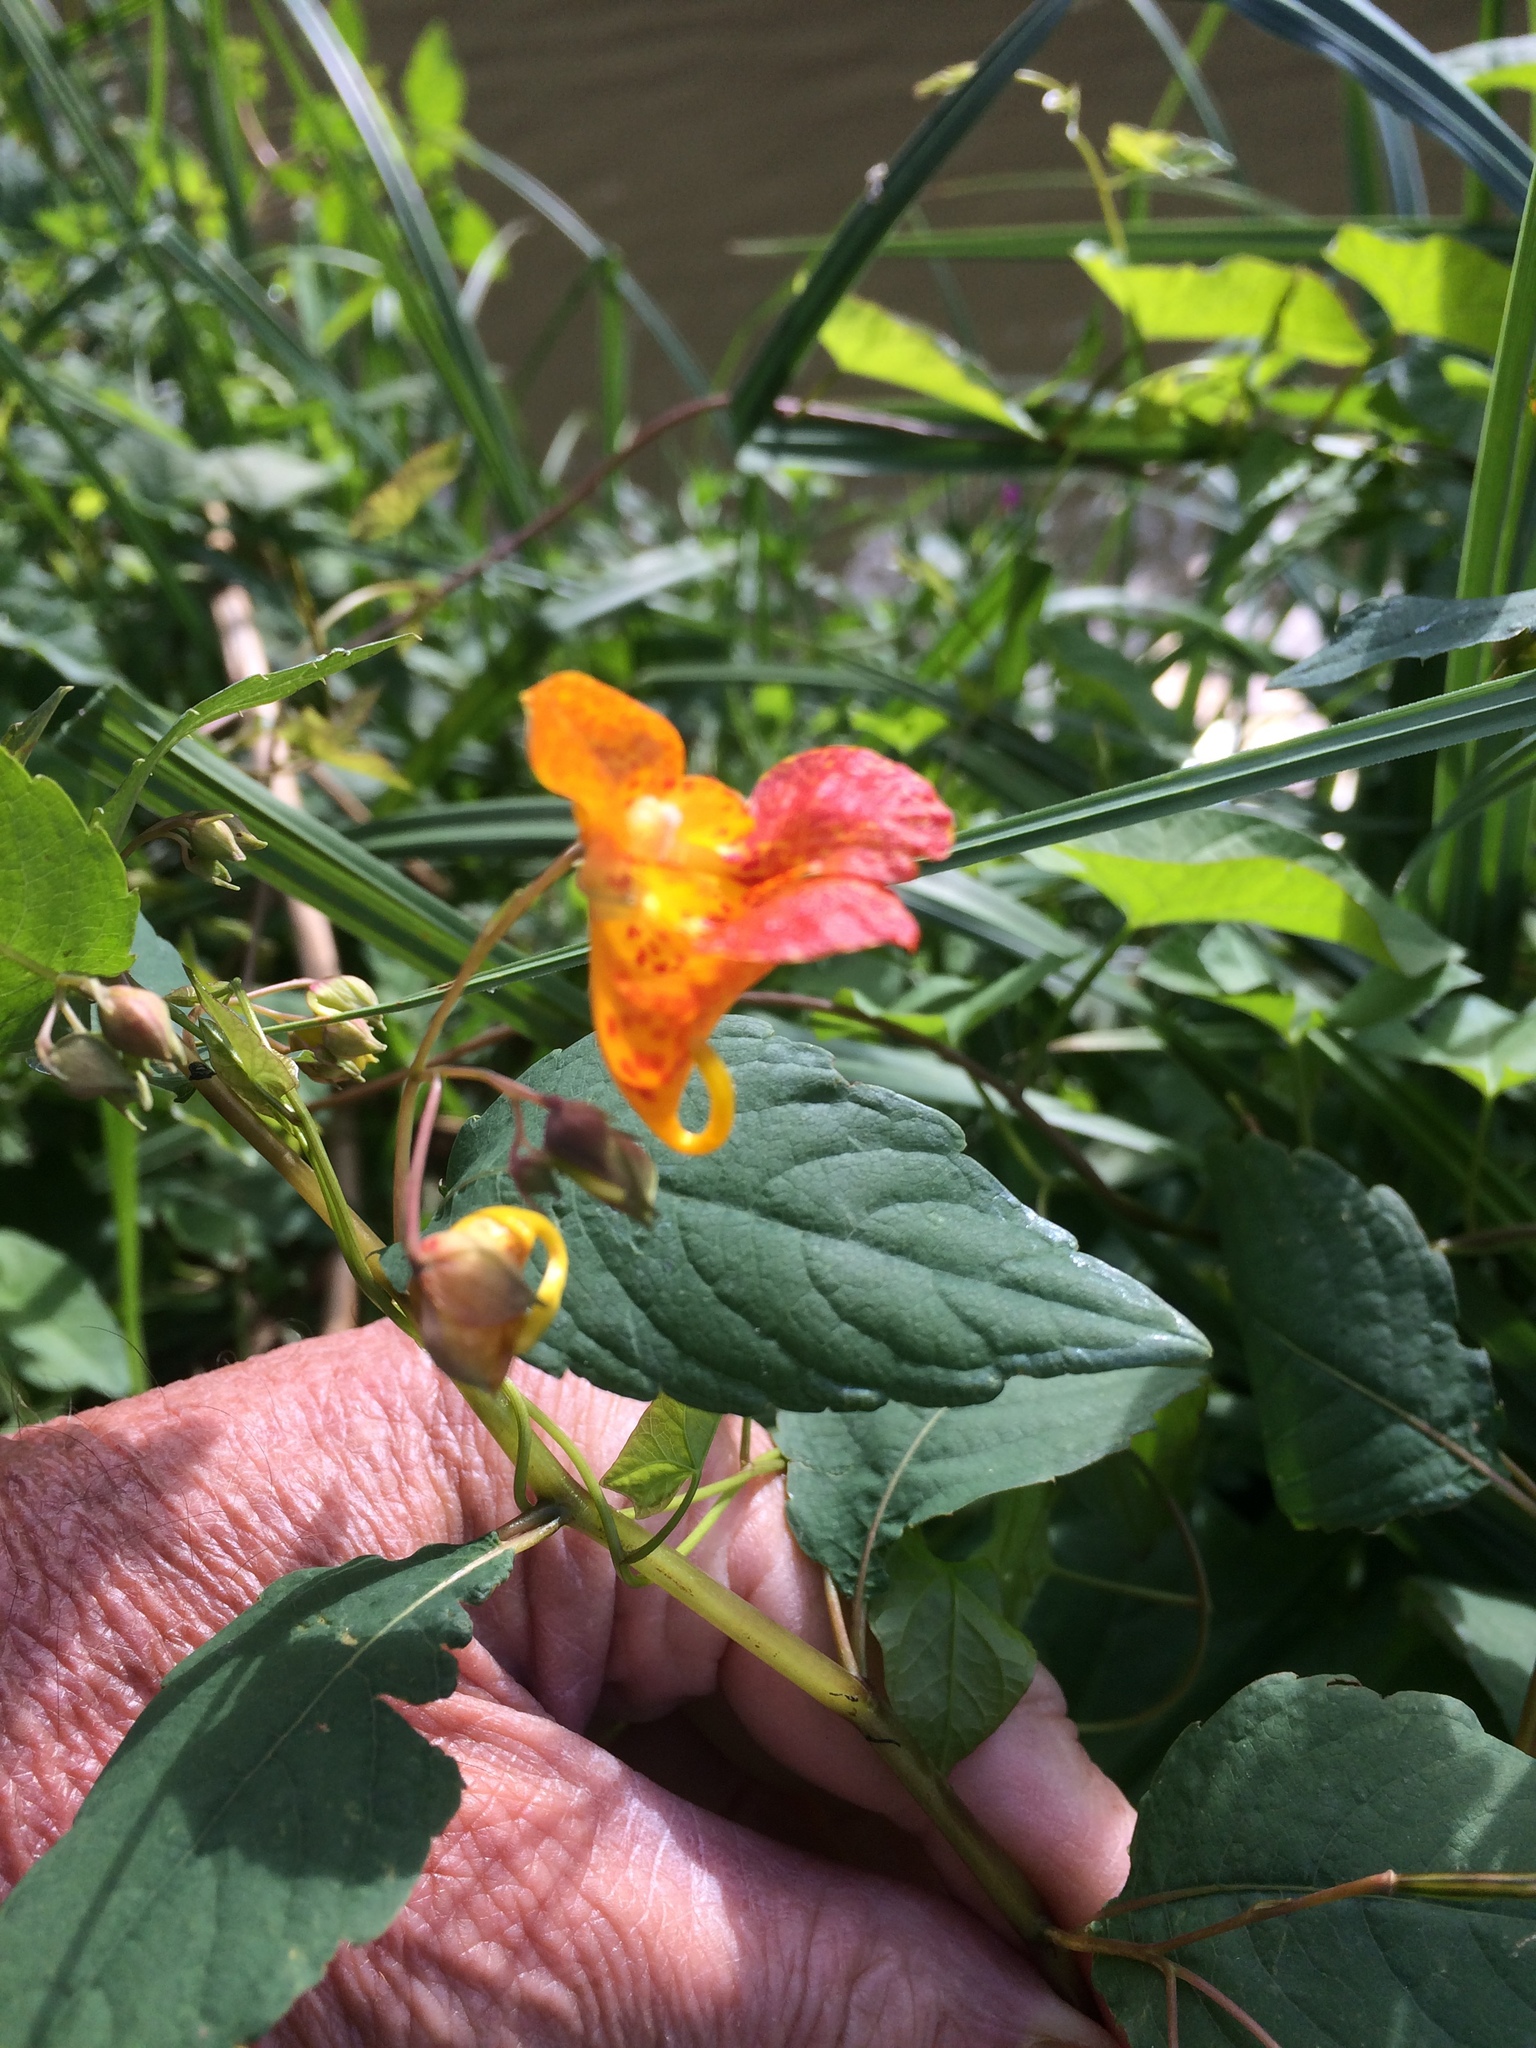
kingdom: Plantae
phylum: Tracheophyta
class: Magnoliopsida
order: Ericales
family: Balsaminaceae
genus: Impatiens
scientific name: Impatiens capensis
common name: Orange balsam
